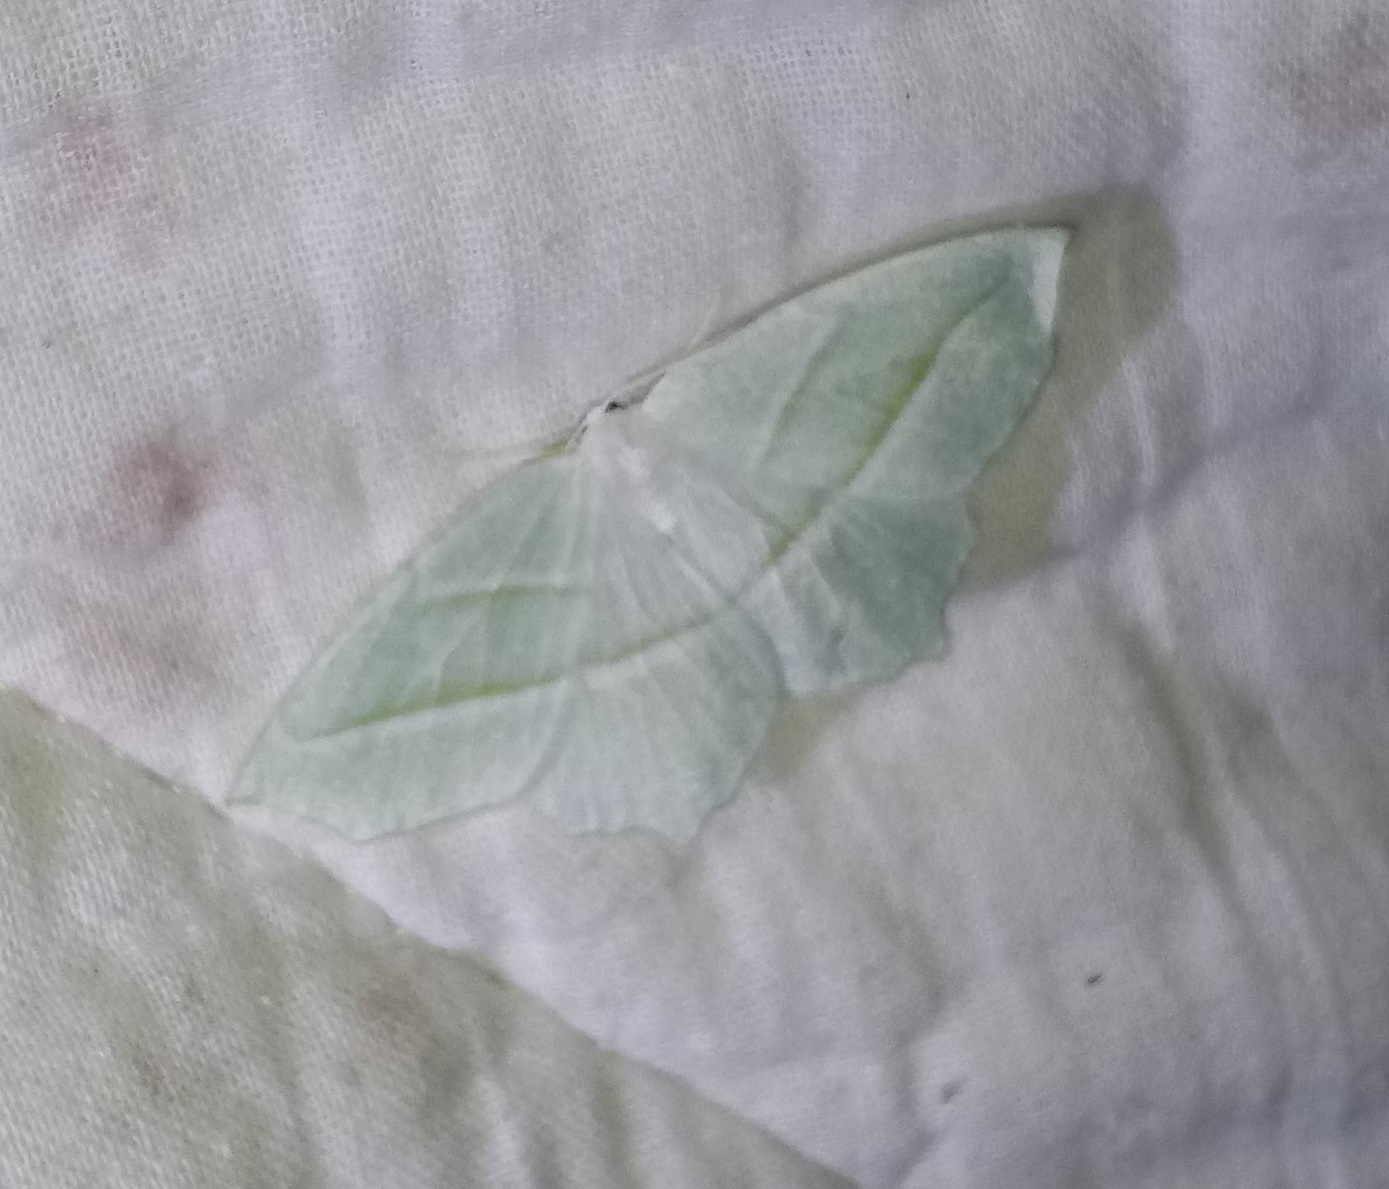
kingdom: Animalia
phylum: Arthropoda
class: Insecta
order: Lepidoptera
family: Geometridae
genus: Campaea
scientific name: Campaea perlata
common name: Fringed looper
